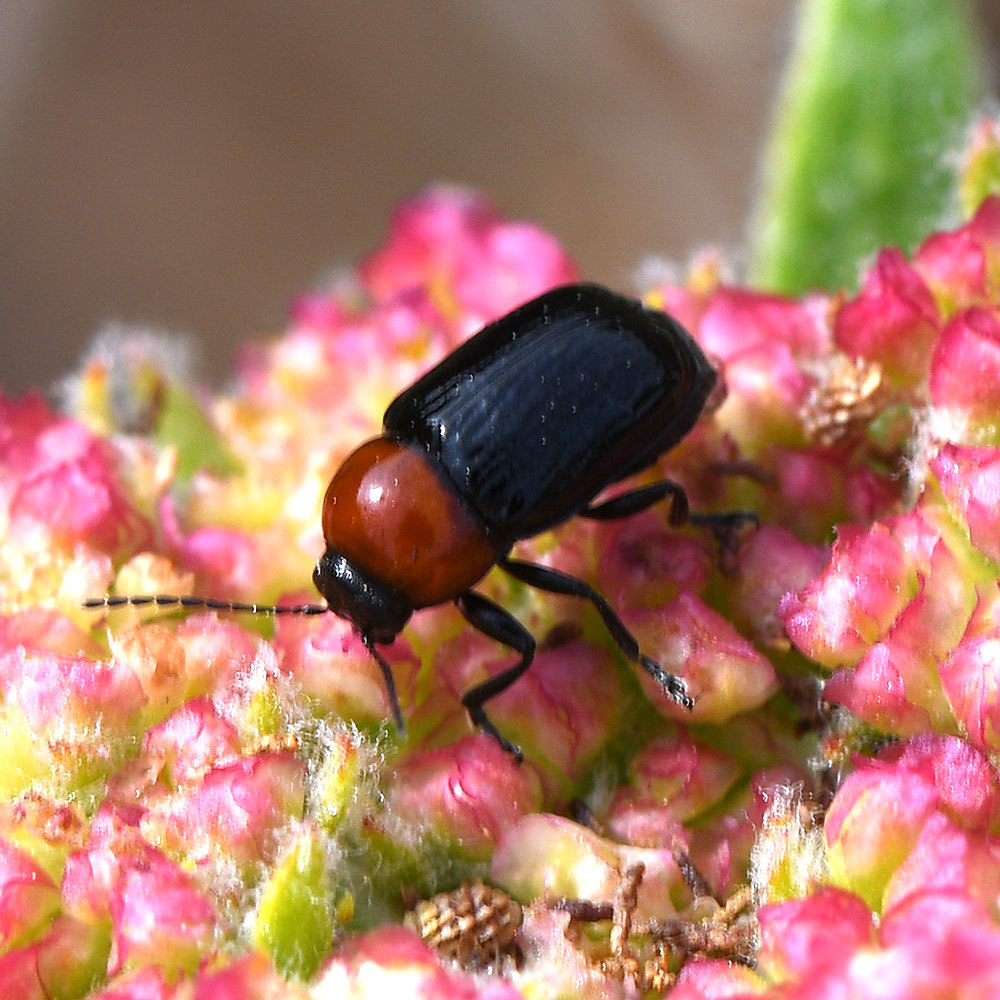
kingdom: Animalia
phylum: Arthropoda
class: Insecta
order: Coleoptera
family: Chrysomelidae
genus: Cryptocephalus
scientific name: Cryptocephalus sanguinicollis
